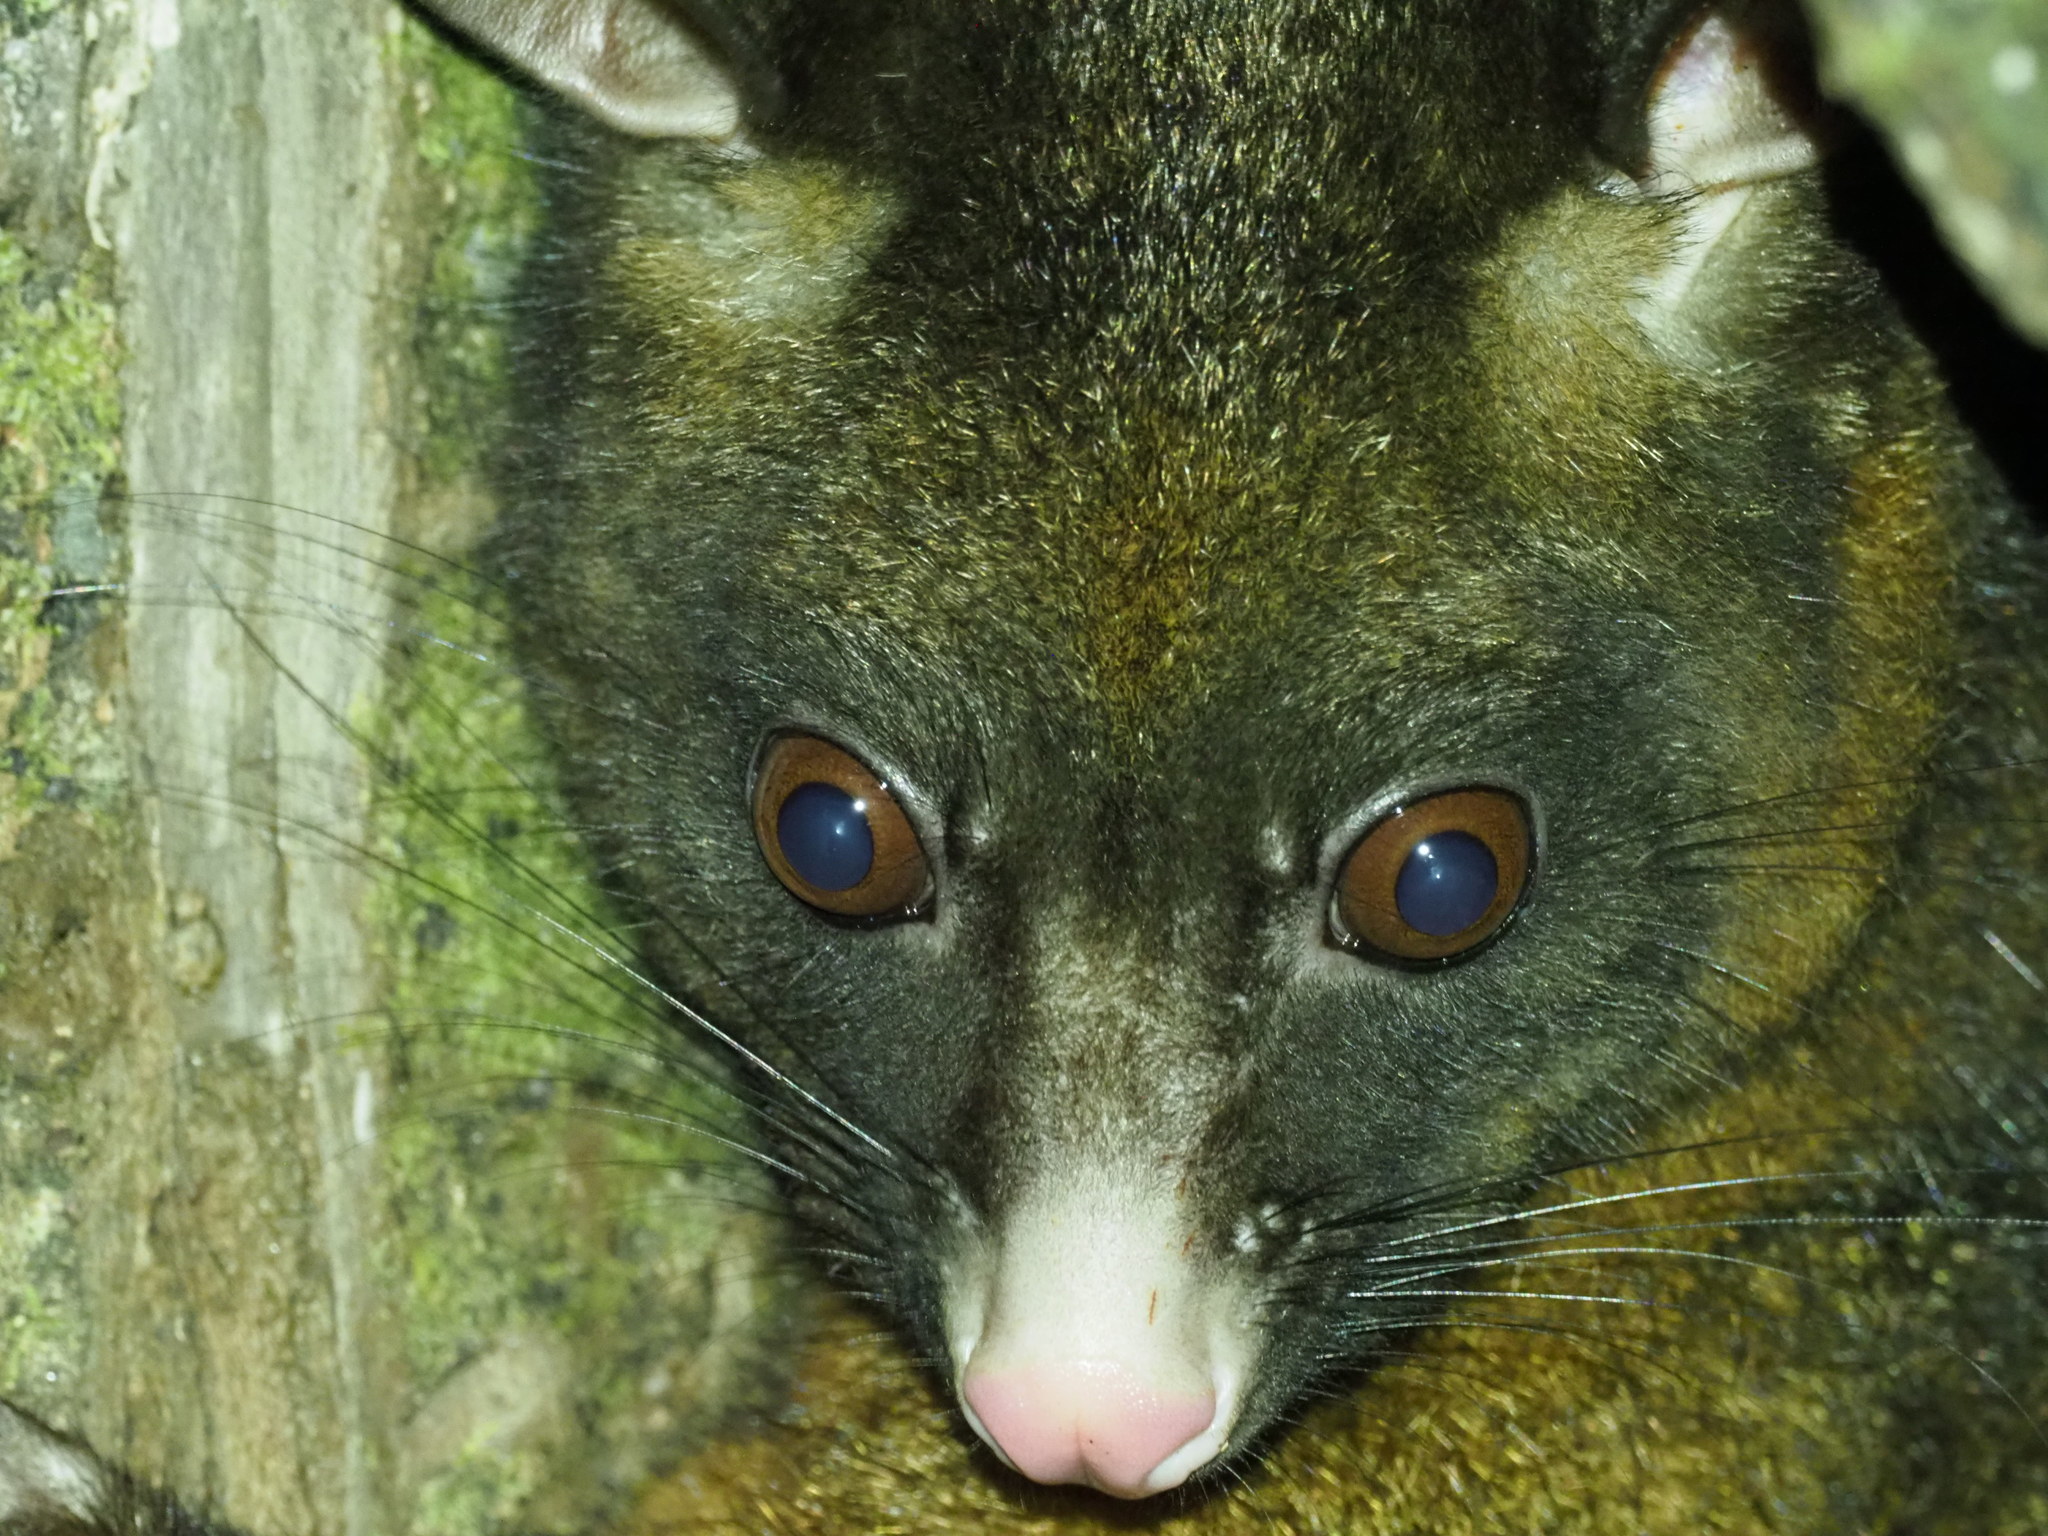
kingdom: Animalia
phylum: Chordata
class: Mammalia
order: Diprotodontia
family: Phalangeridae
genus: Trichosurus
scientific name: Trichosurus vulpecula
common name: Common brushtail
